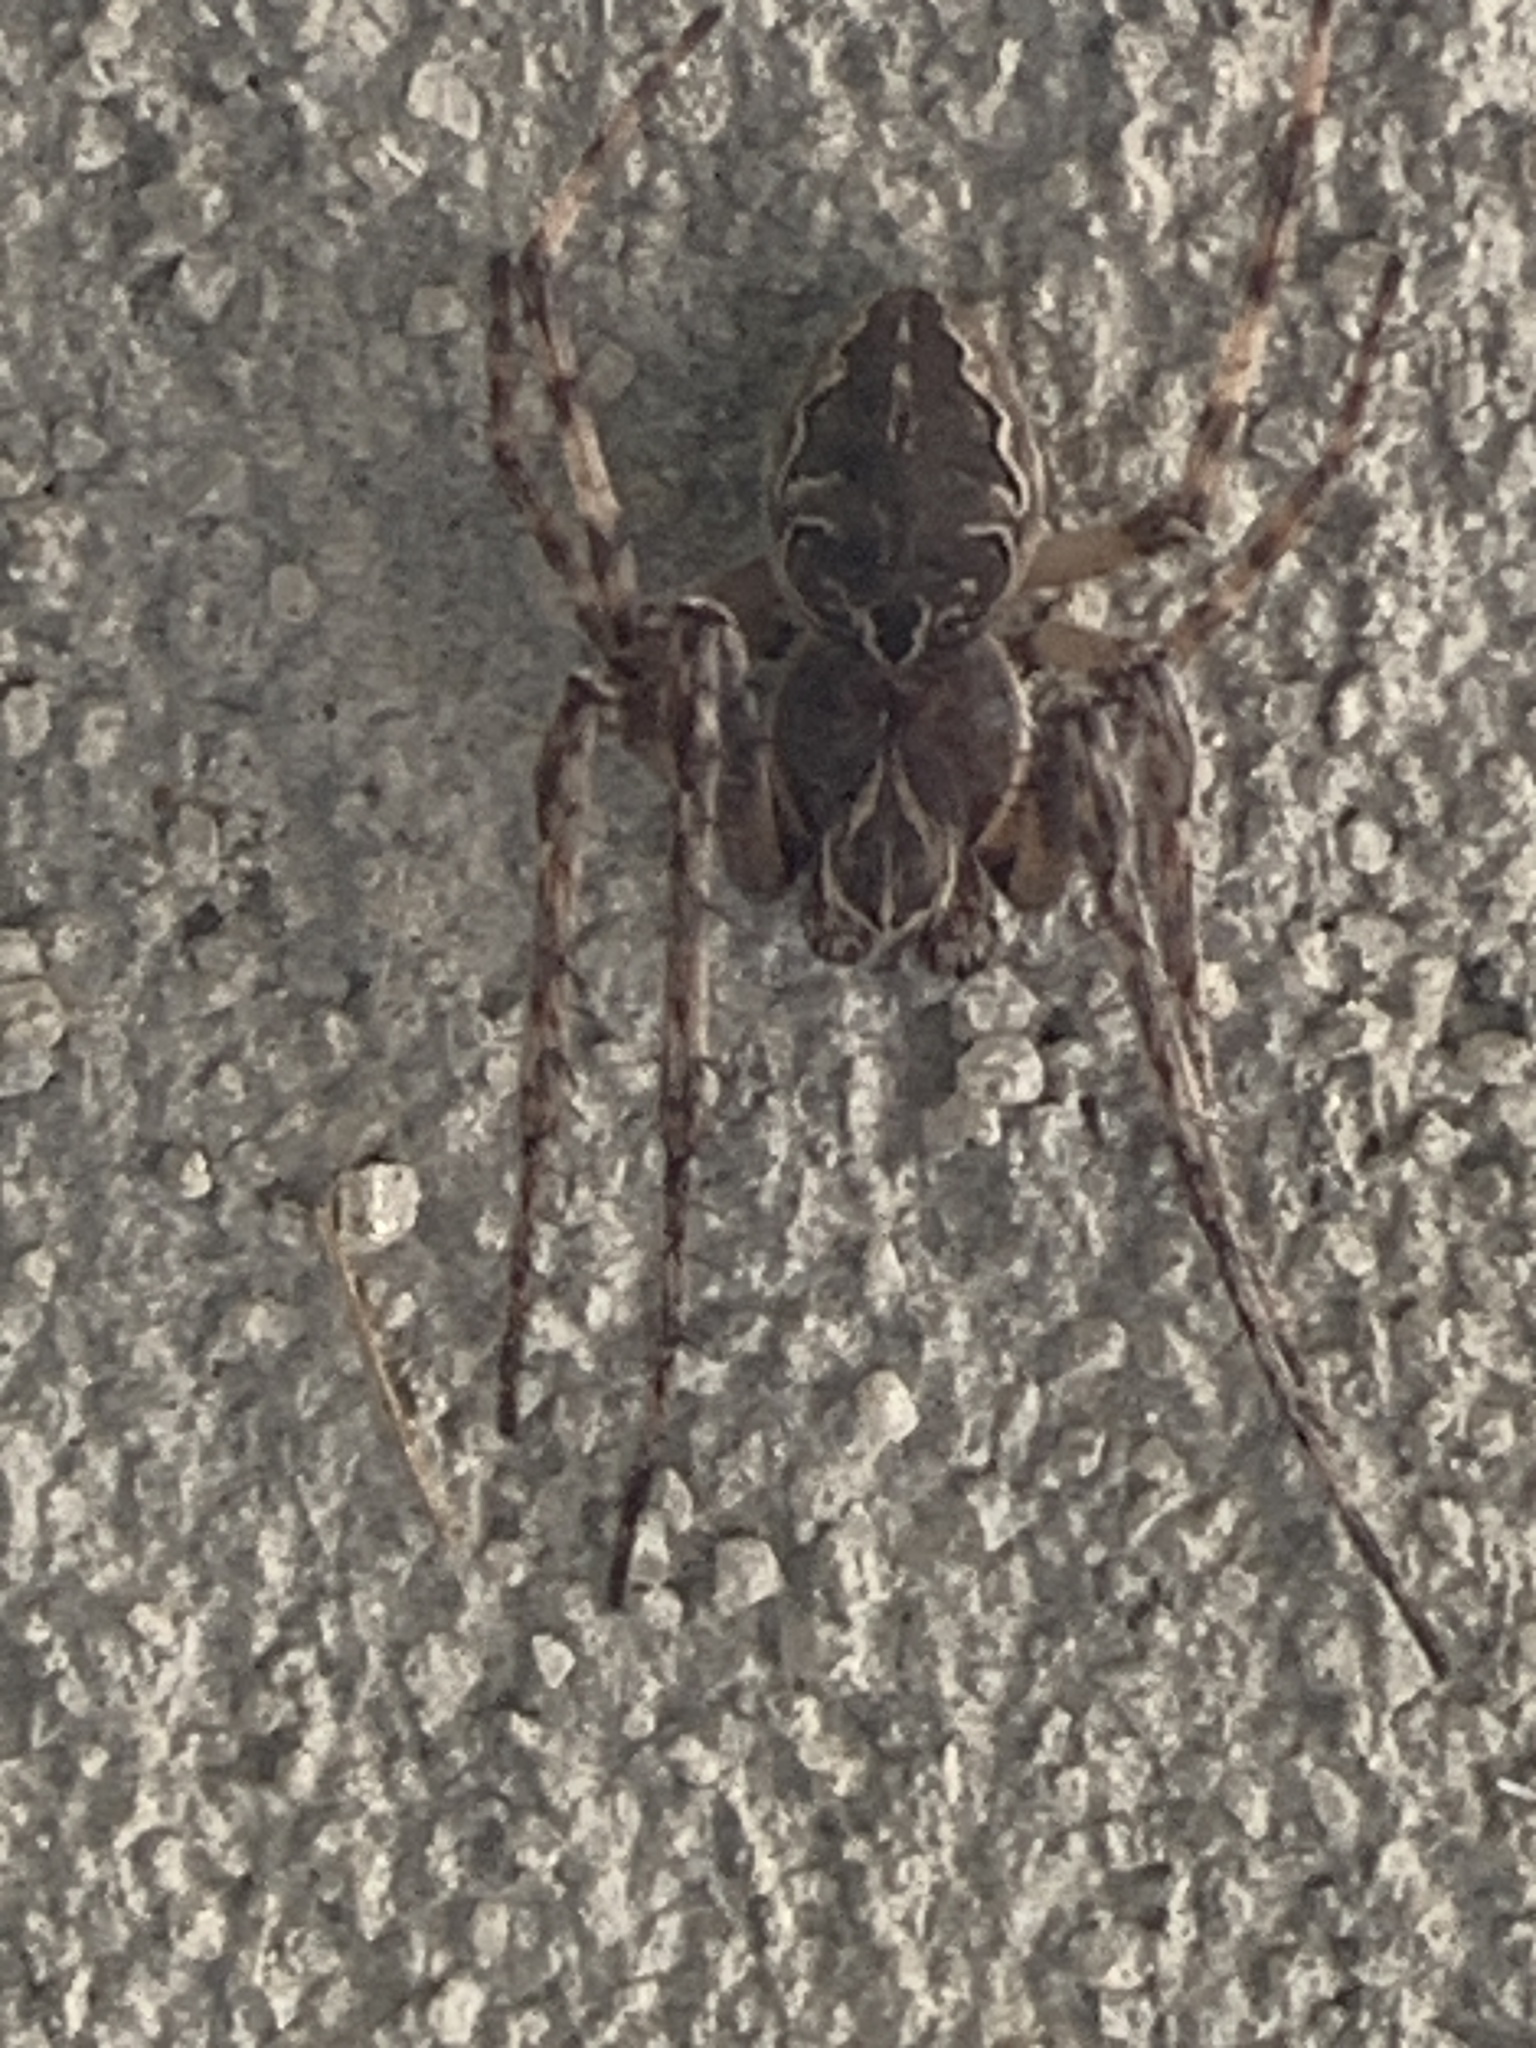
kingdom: Animalia
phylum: Arthropoda
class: Arachnida
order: Araneae
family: Araneidae
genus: Larinioides
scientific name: Larinioides sclopetarius
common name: Bridge orbweaver
